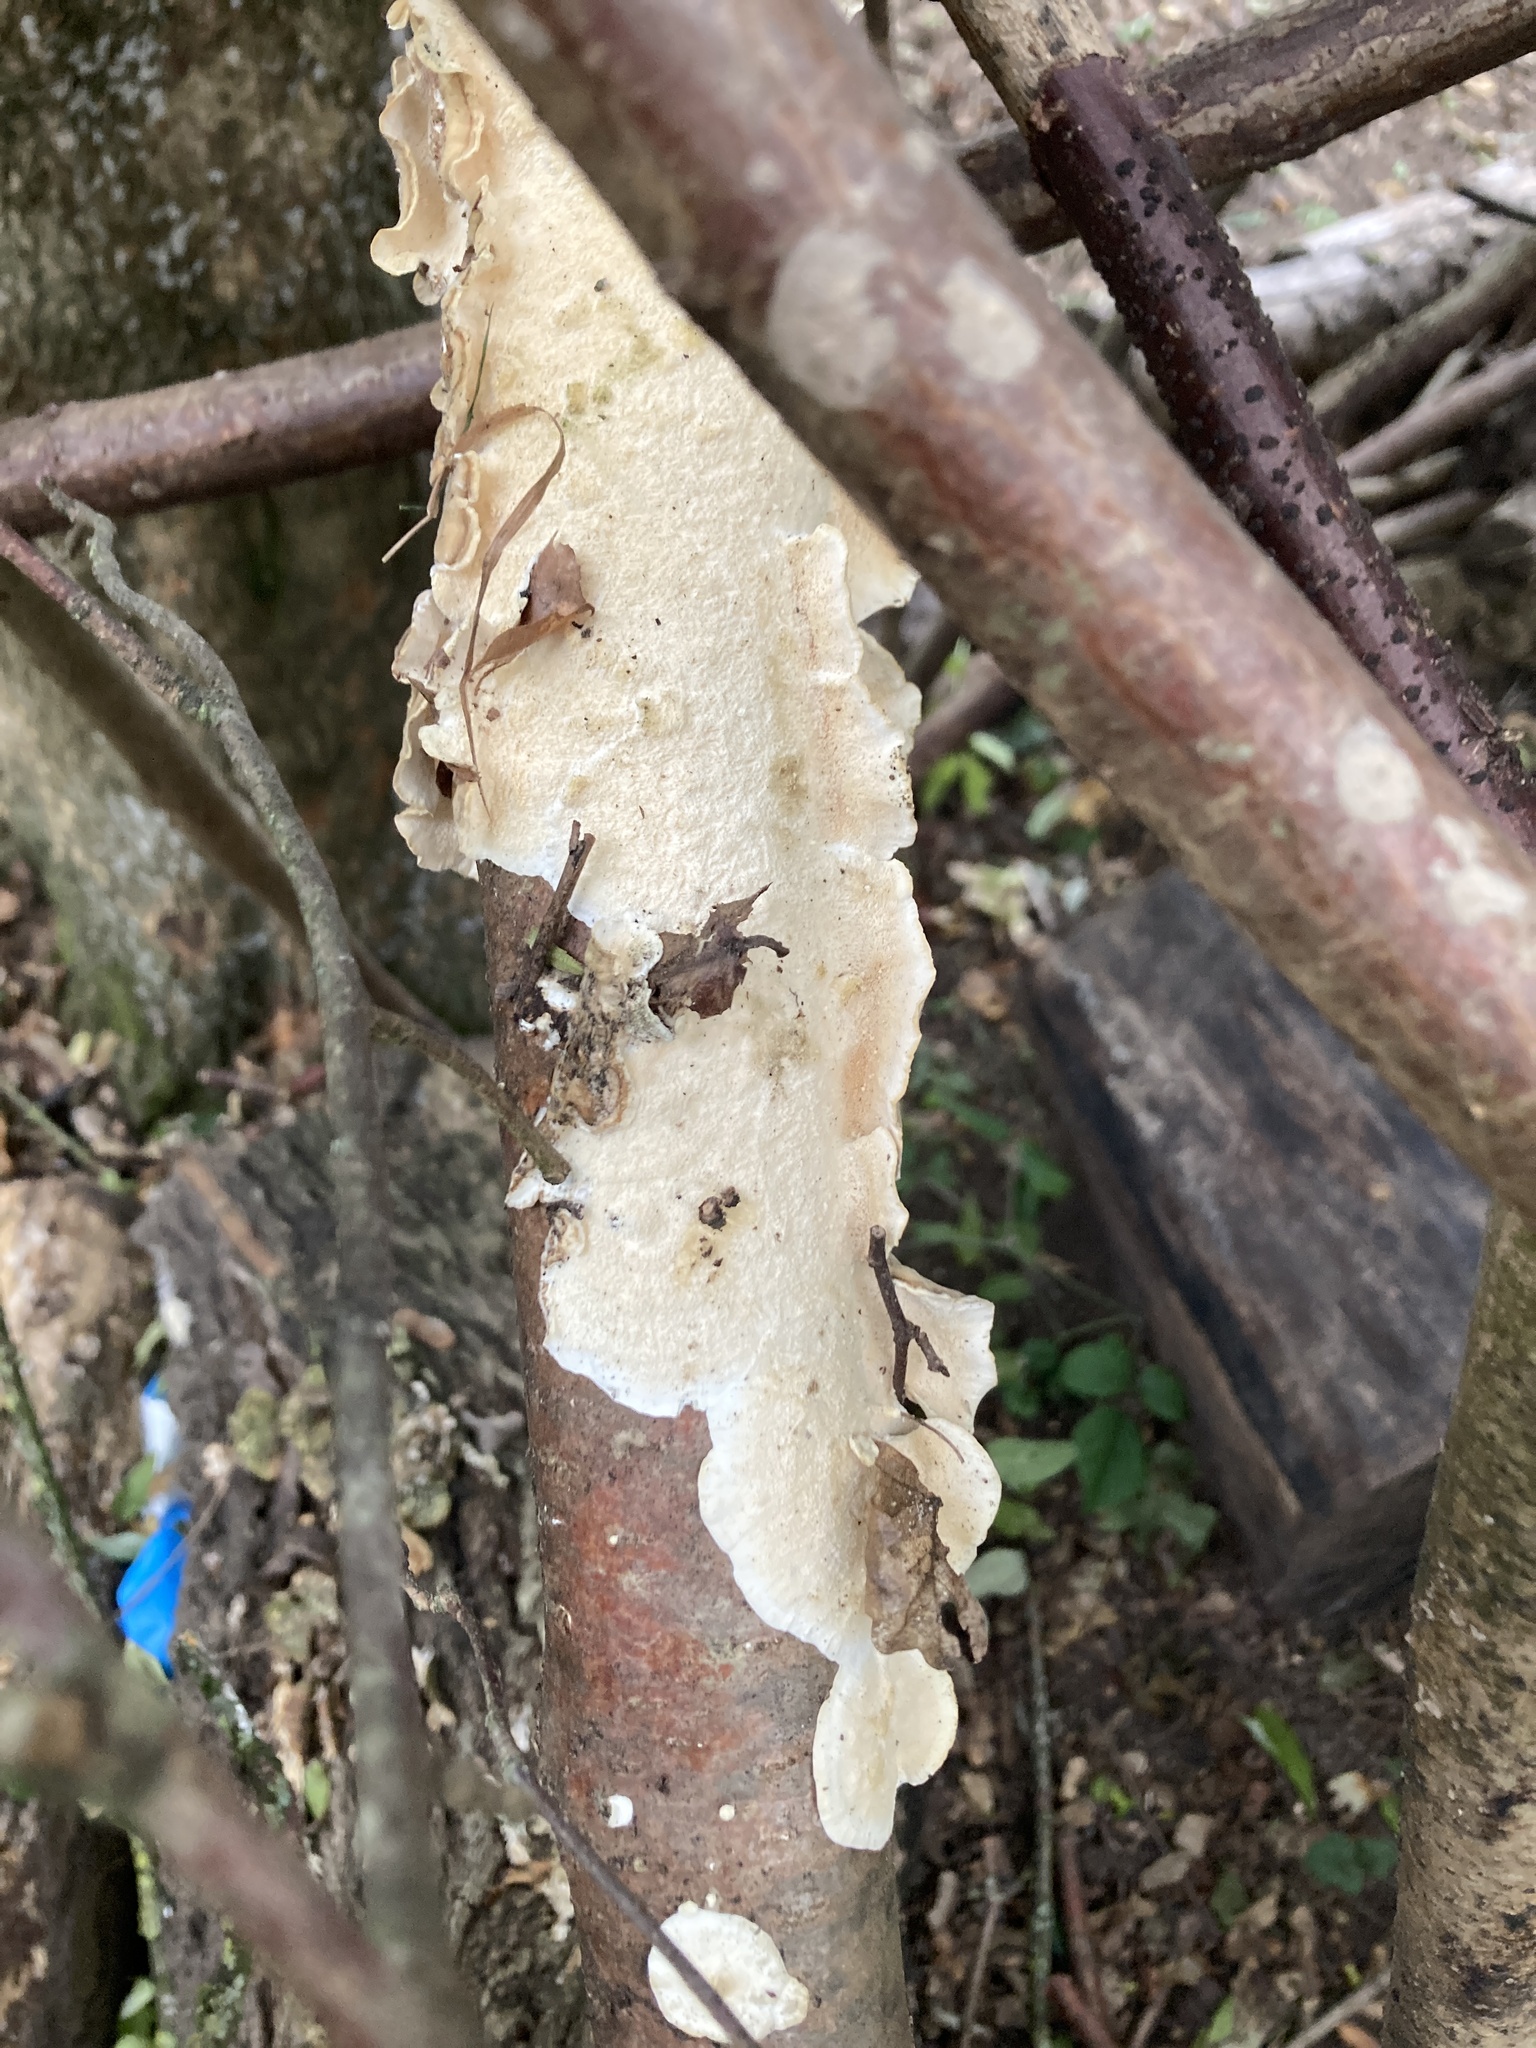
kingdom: Fungi
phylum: Basidiomycota
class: Agaricomycetes
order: Polyporales
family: Irpicaceae
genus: Byssomerulius
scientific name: Byssomerulius corium
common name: Netted crust
